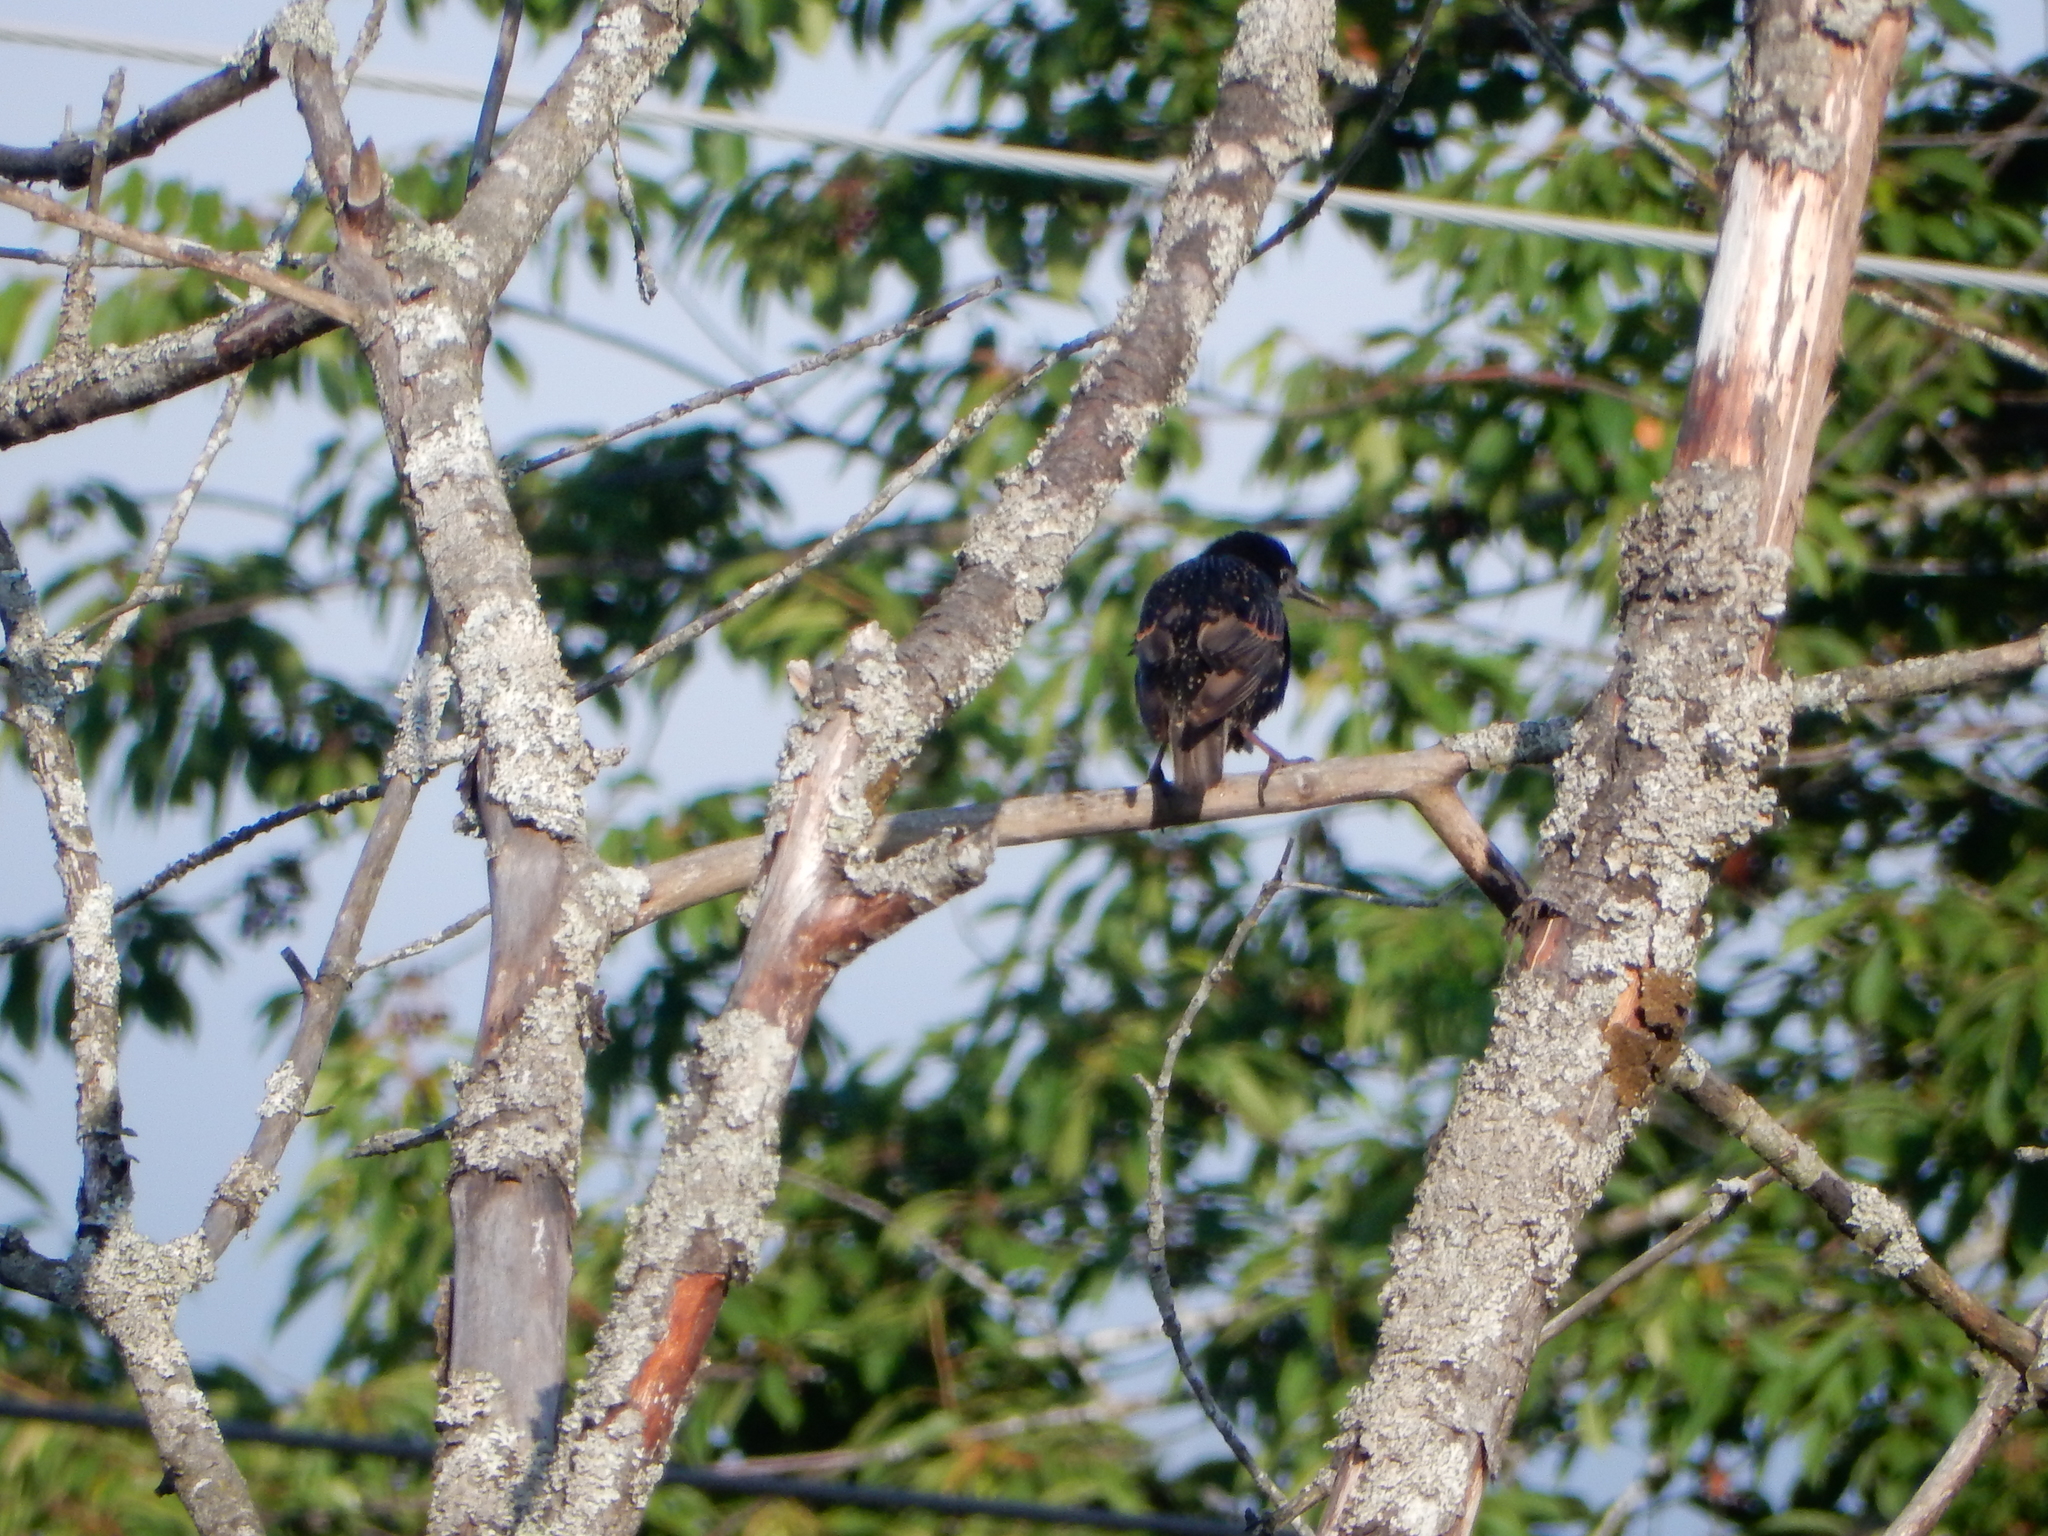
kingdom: Animalia
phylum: Chordata
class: Aves
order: Passeriformes
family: Sturnidae
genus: Sturnus
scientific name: Sturnus vulgaris
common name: Common starling
